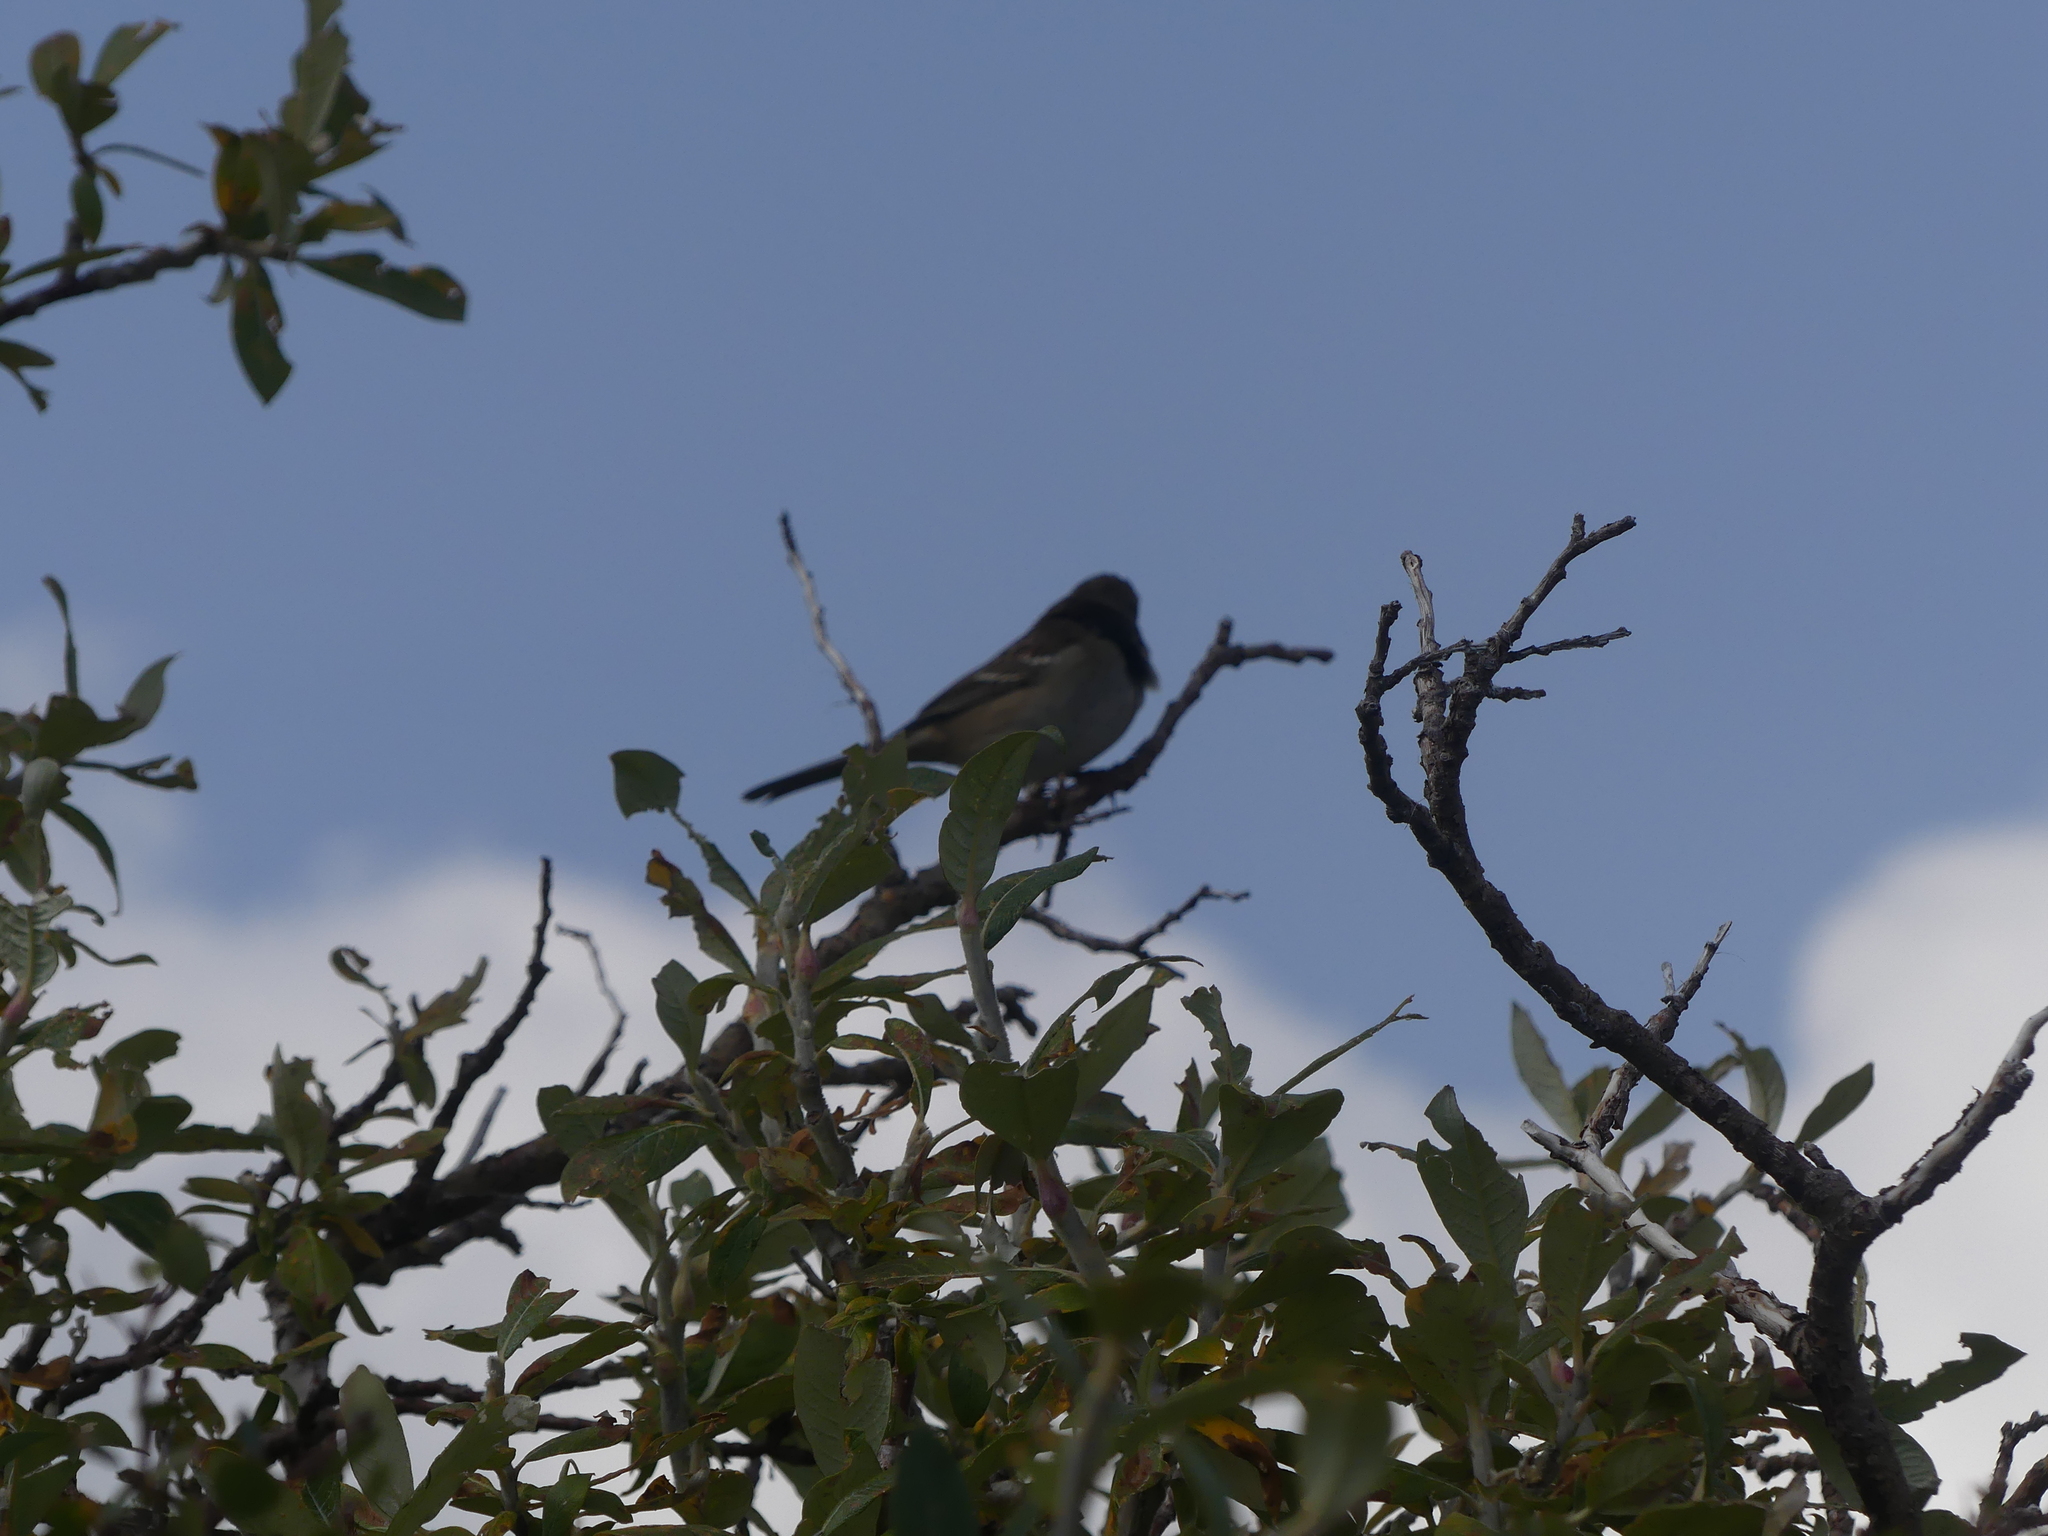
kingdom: Animalia
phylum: Chordata
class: Aves
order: Passeriformes
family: Passerellidae
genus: Zonotrichia
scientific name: Zonotrichia leucophrys
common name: White-crowned sparrow
